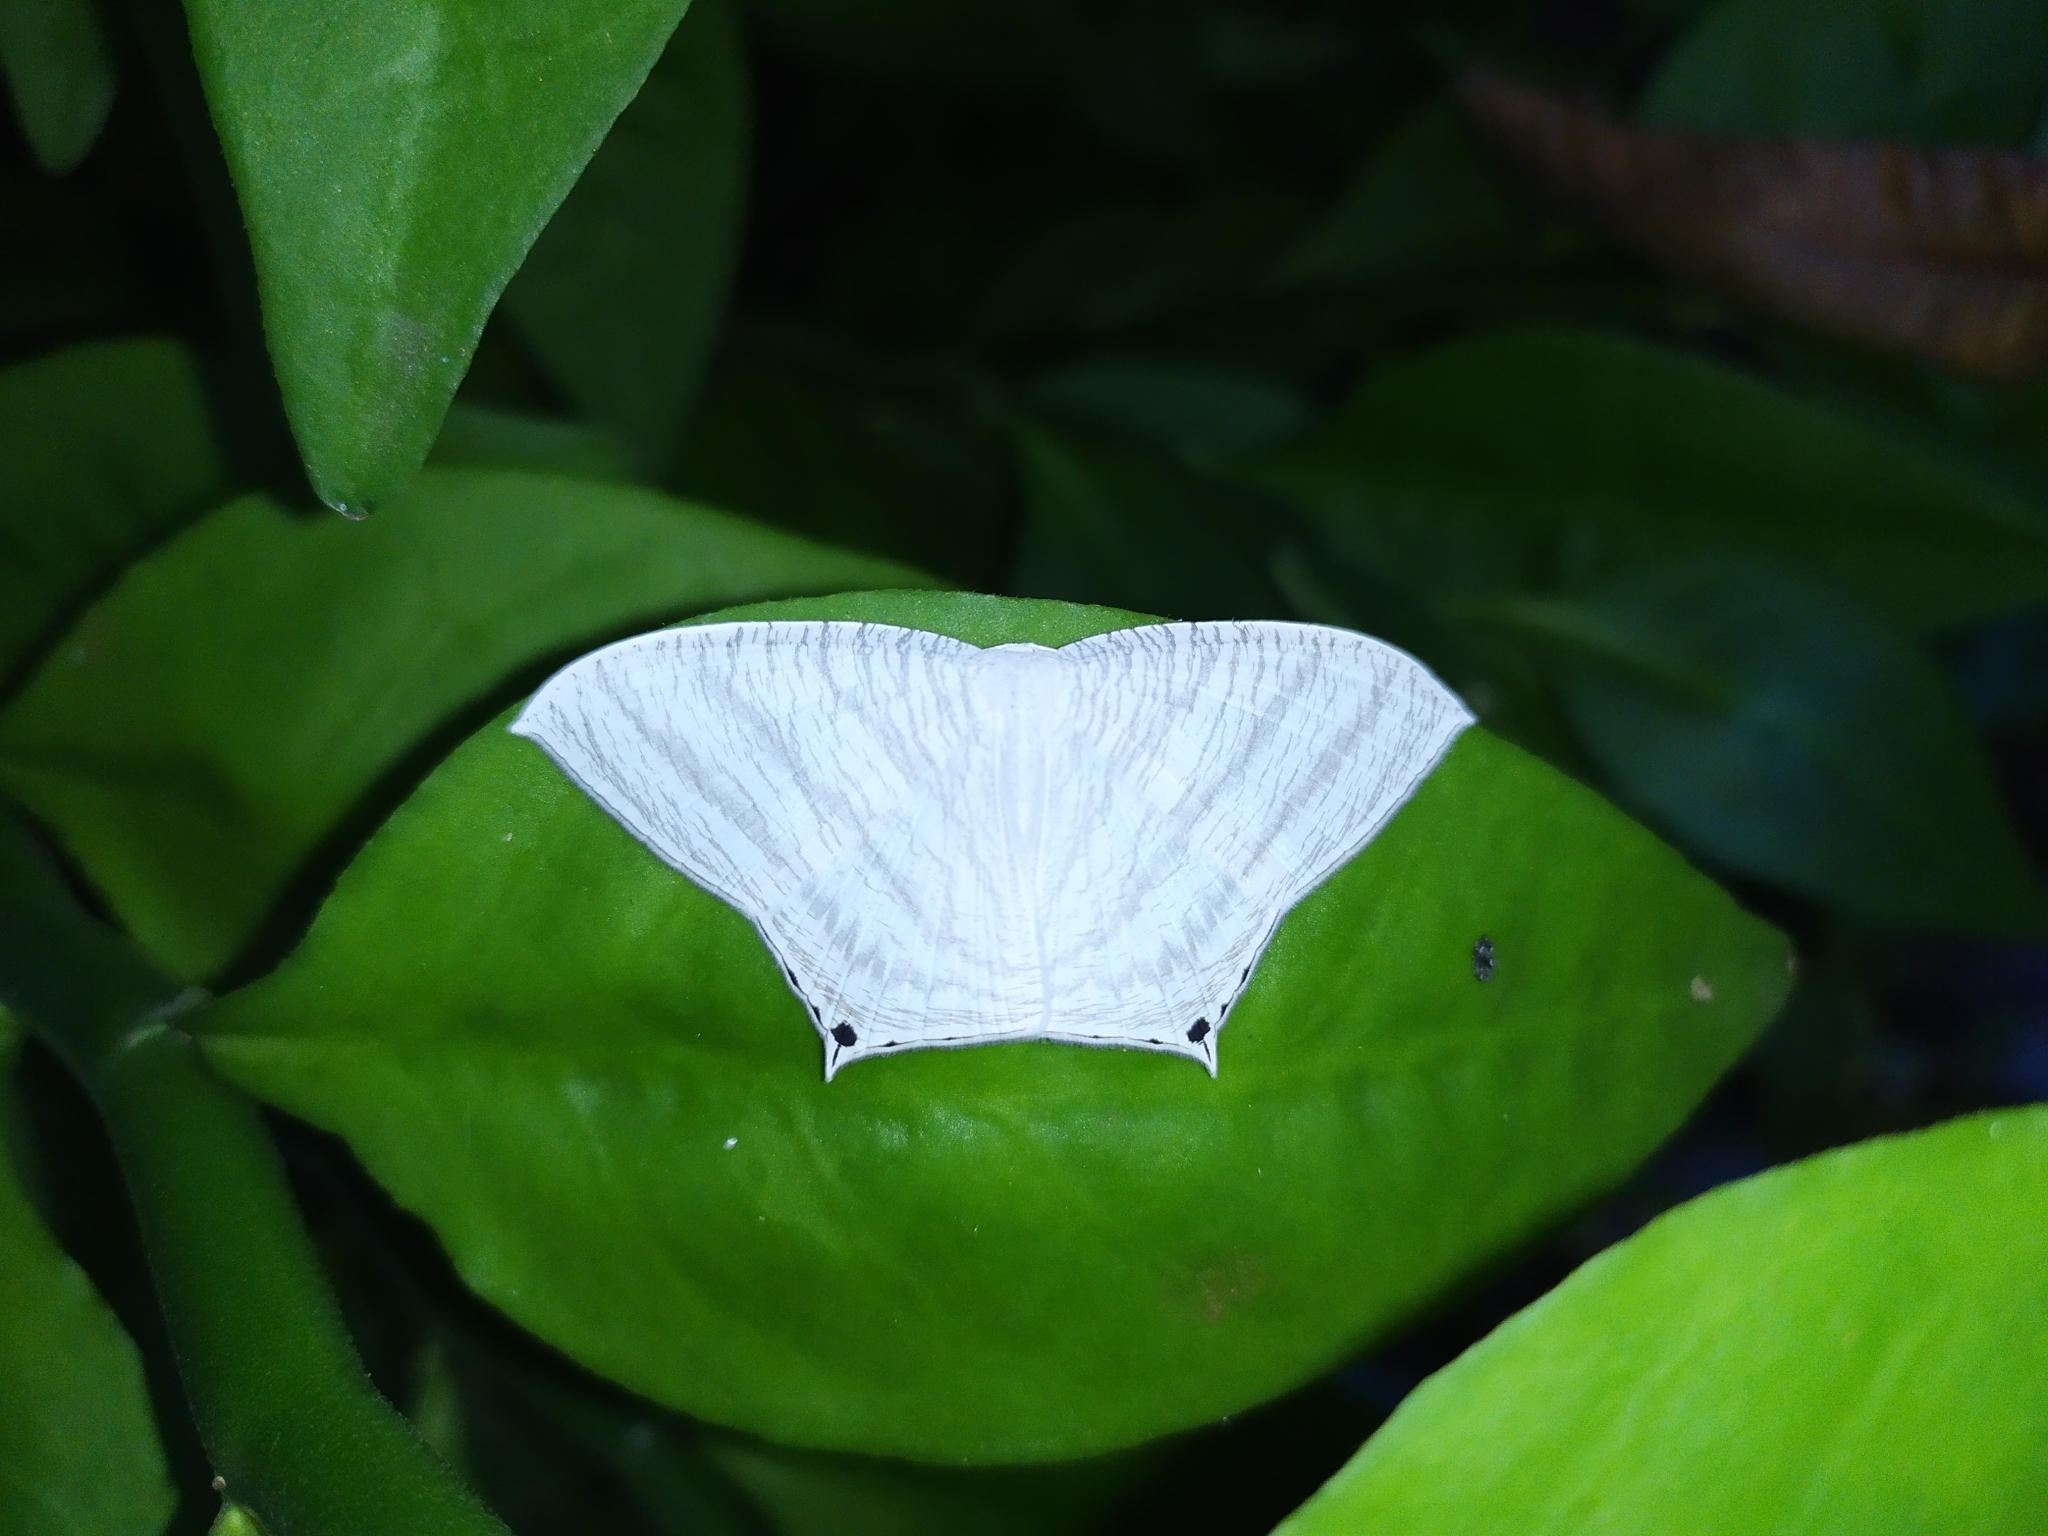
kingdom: Animalia
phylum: Arthropoda
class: Insecta
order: Lepidoptera
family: Uraniidae
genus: Micronia
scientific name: Micronia aculeata
